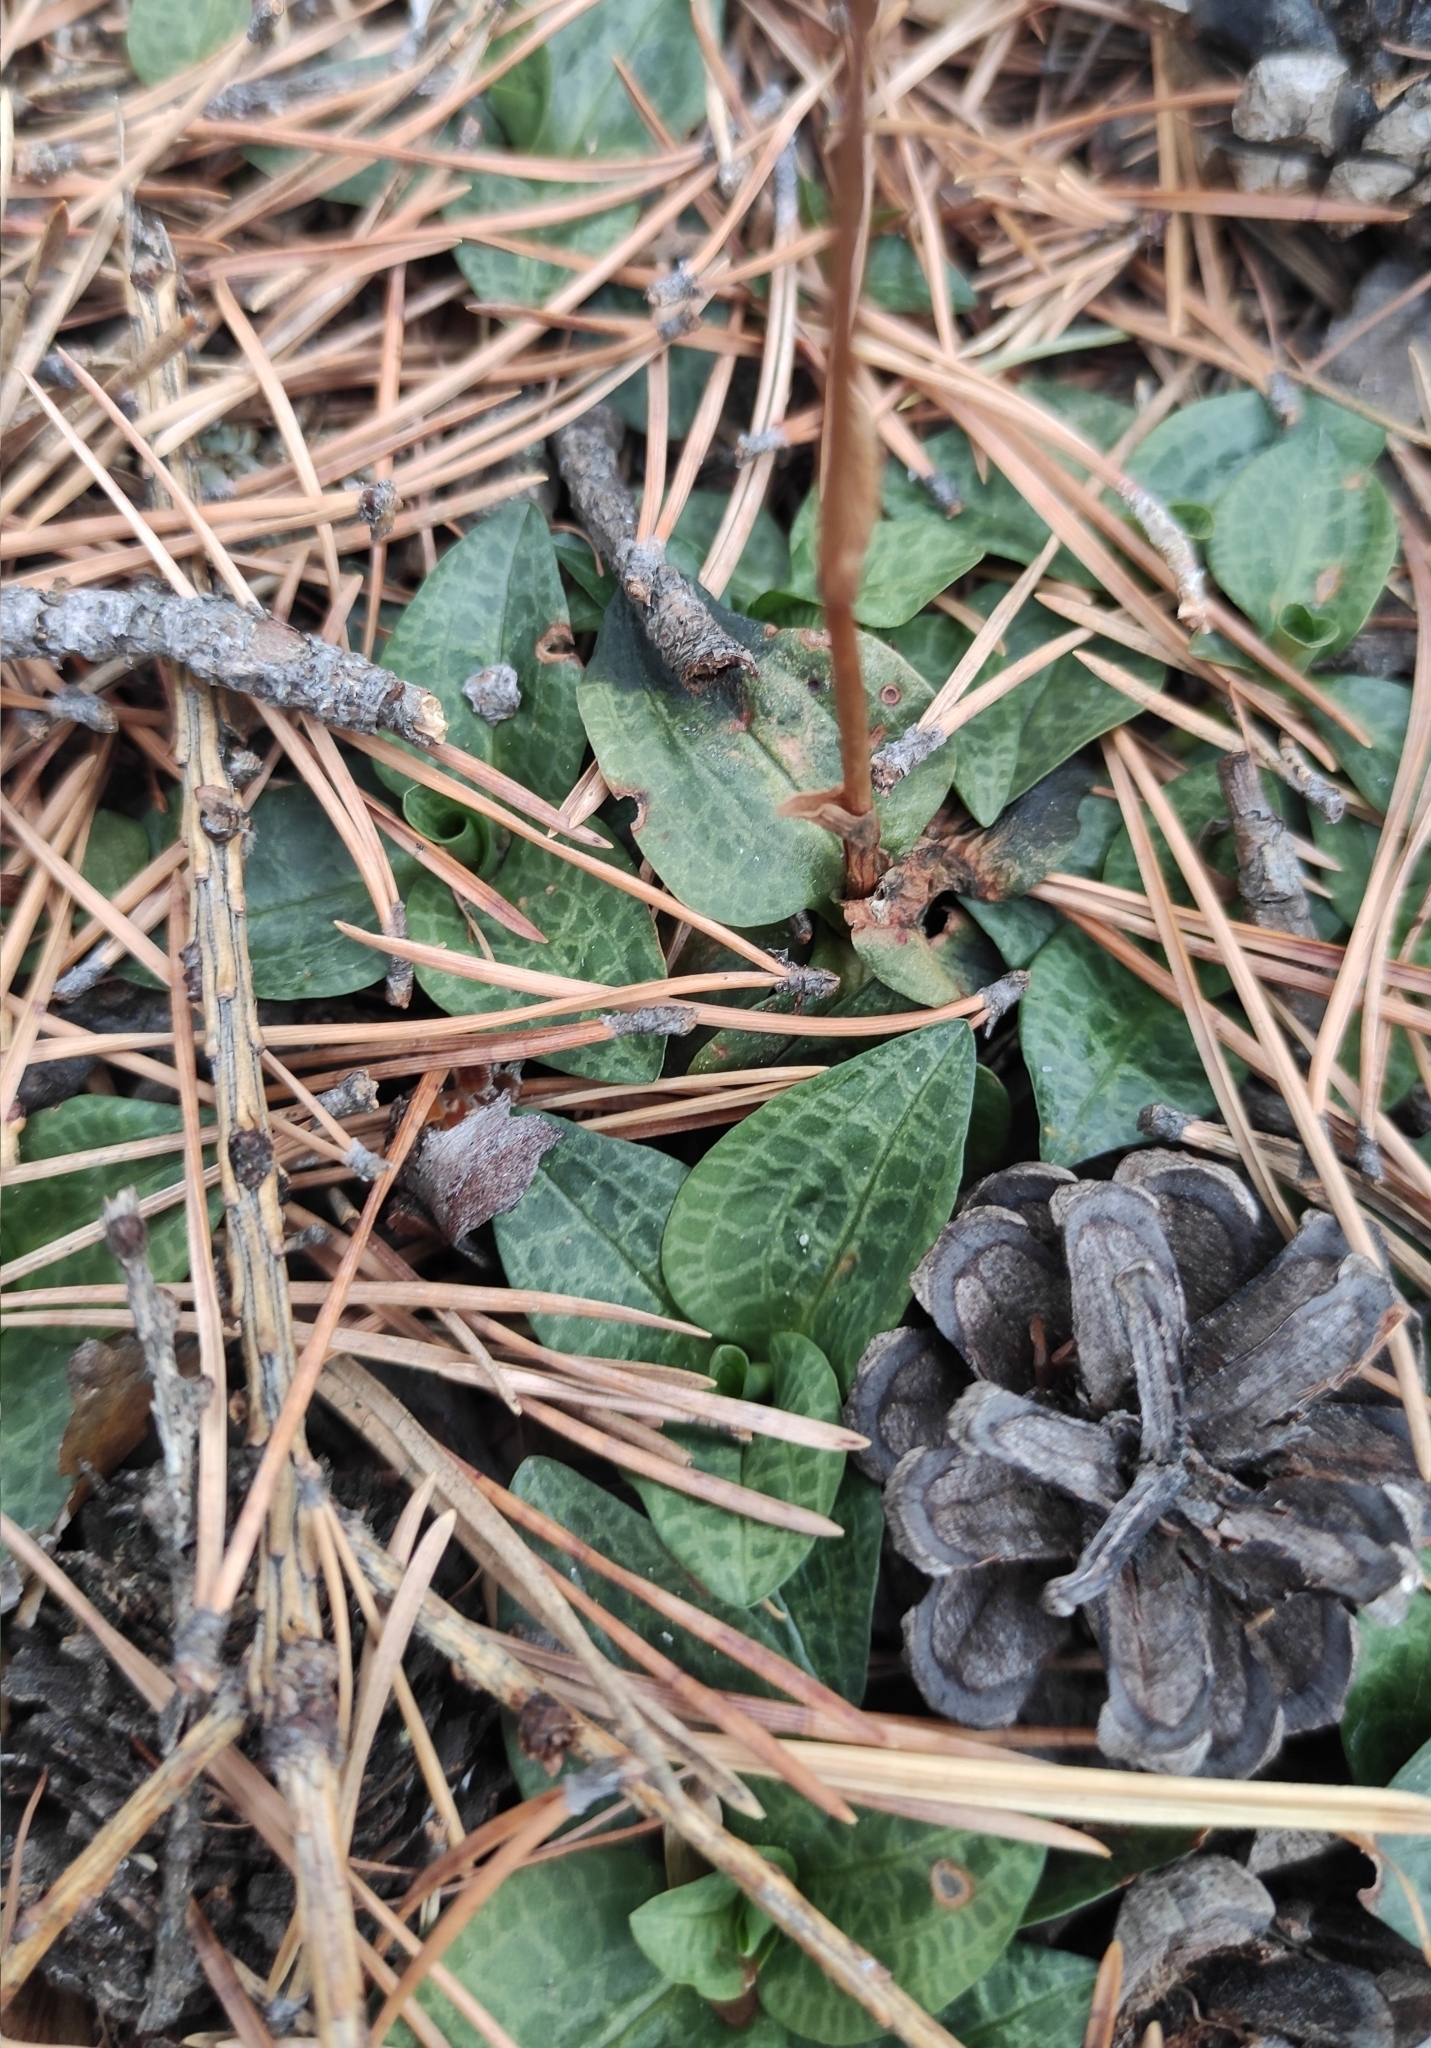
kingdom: Plantae
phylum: Tracheophyta
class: Liliopsida
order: Asparagales
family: Orchidaceae
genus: Goodyera
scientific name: Goodyera repens
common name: Creeping lady's-tresses
